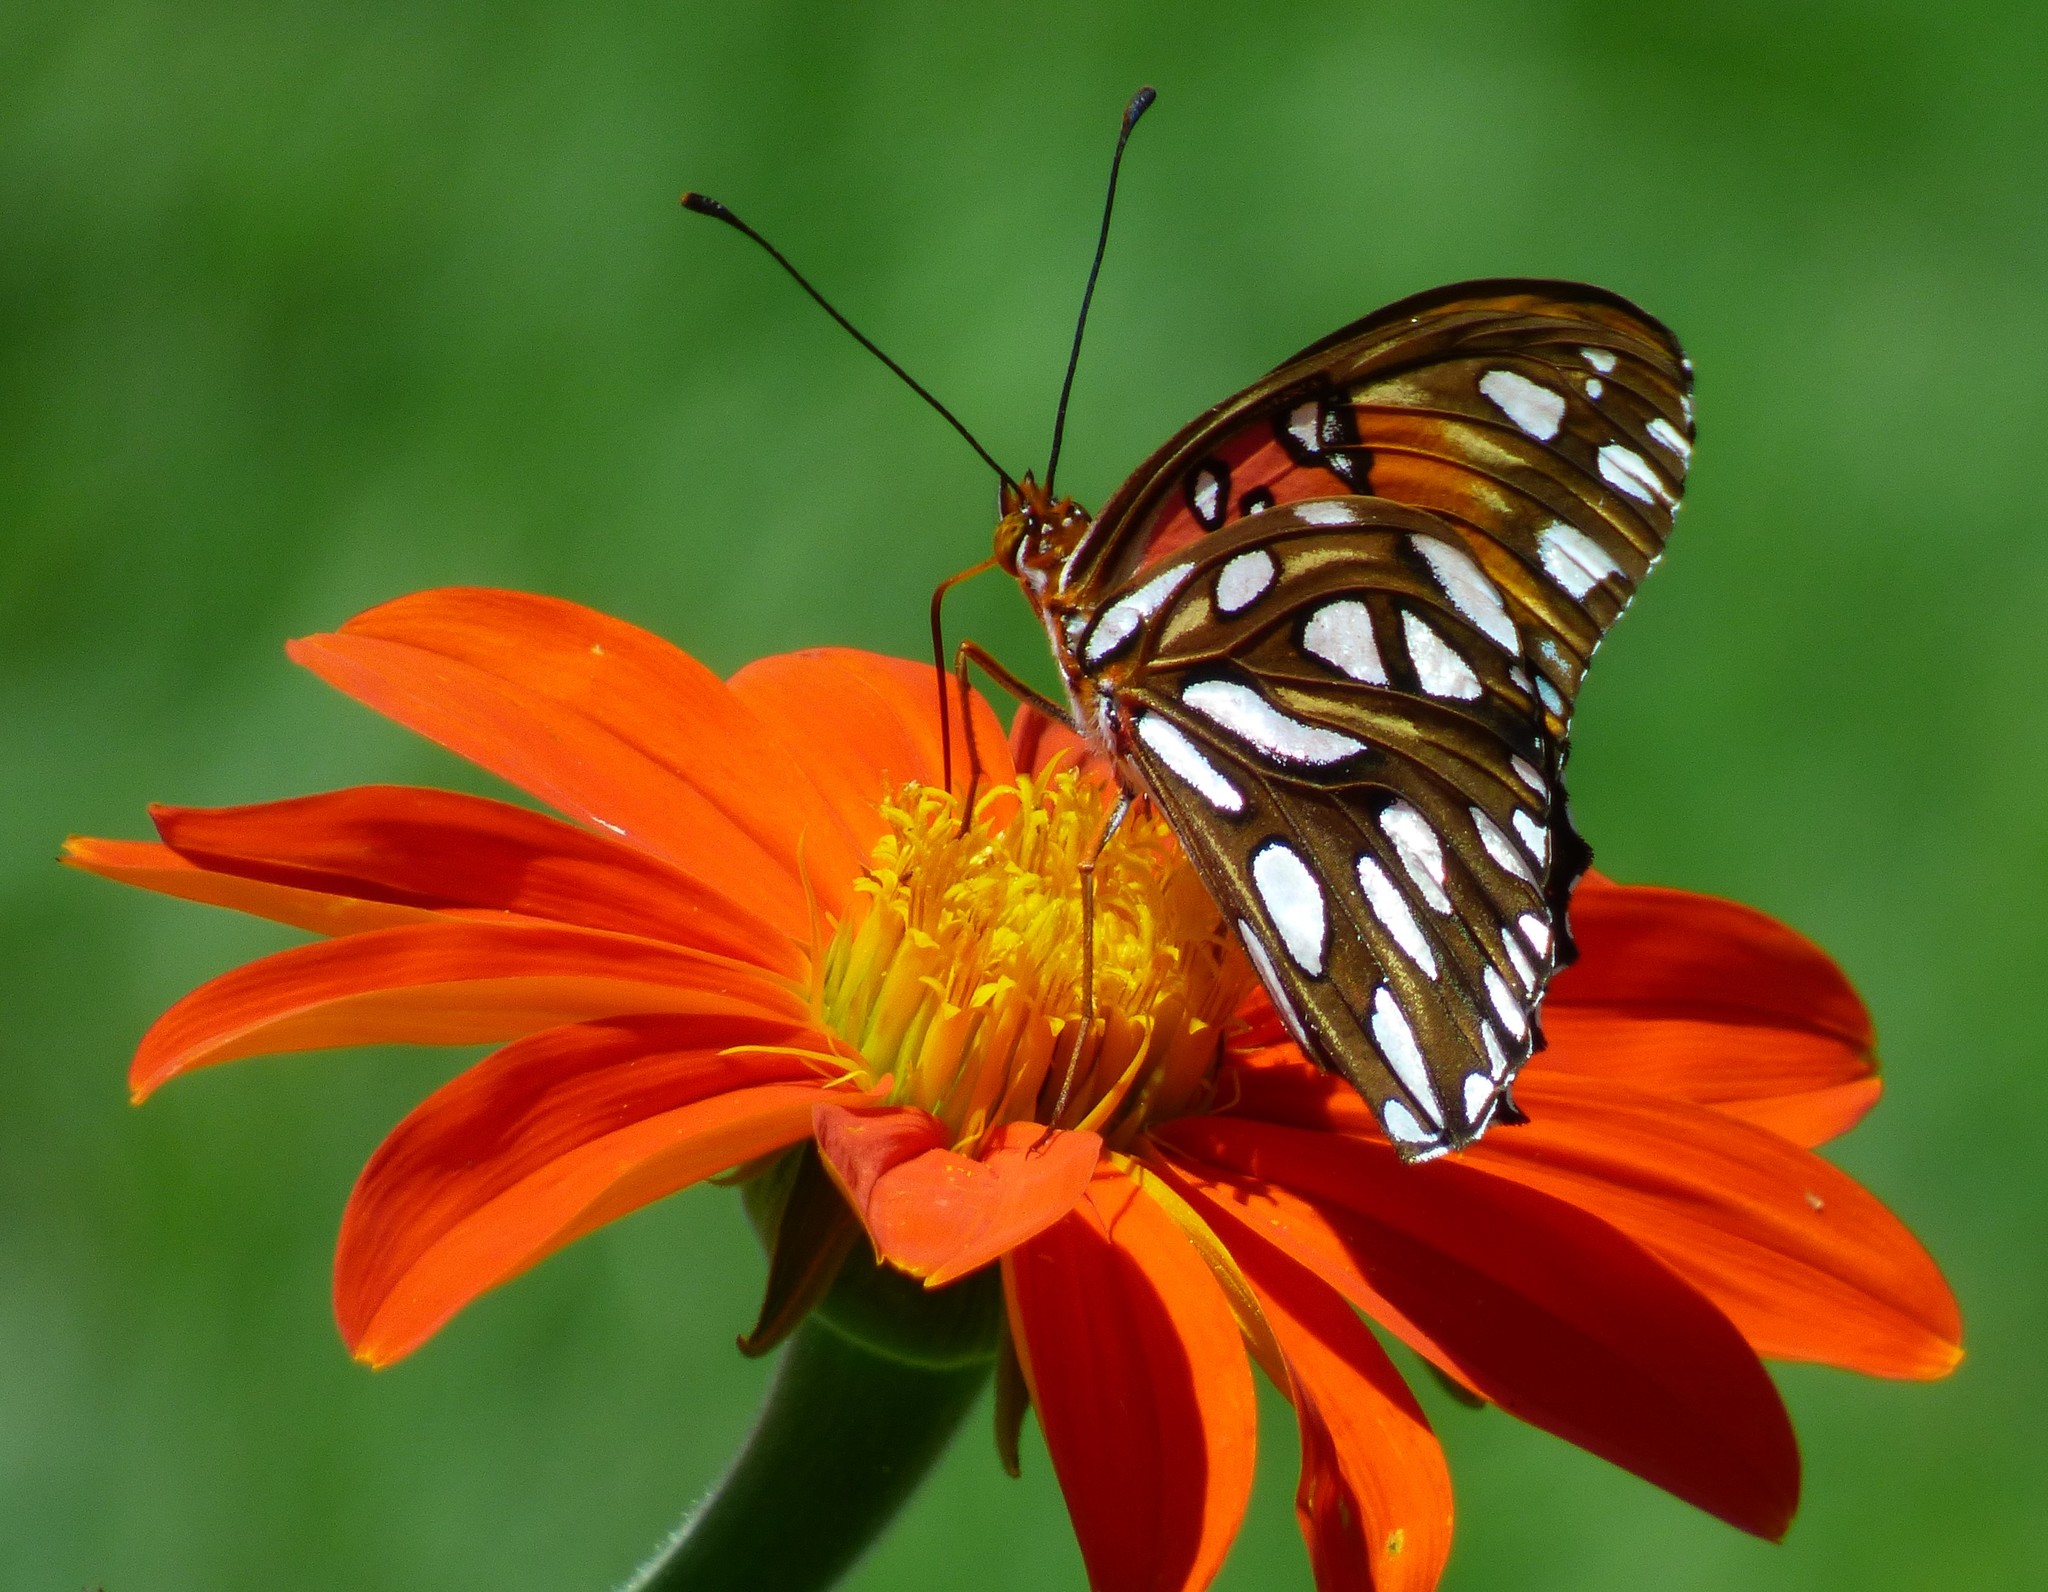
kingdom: Animalia
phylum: Arthropoda
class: Insecta
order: Lepidoptera
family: Nymphalidae
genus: Dione
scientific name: Dione vanillae
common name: Gulf fritillary
